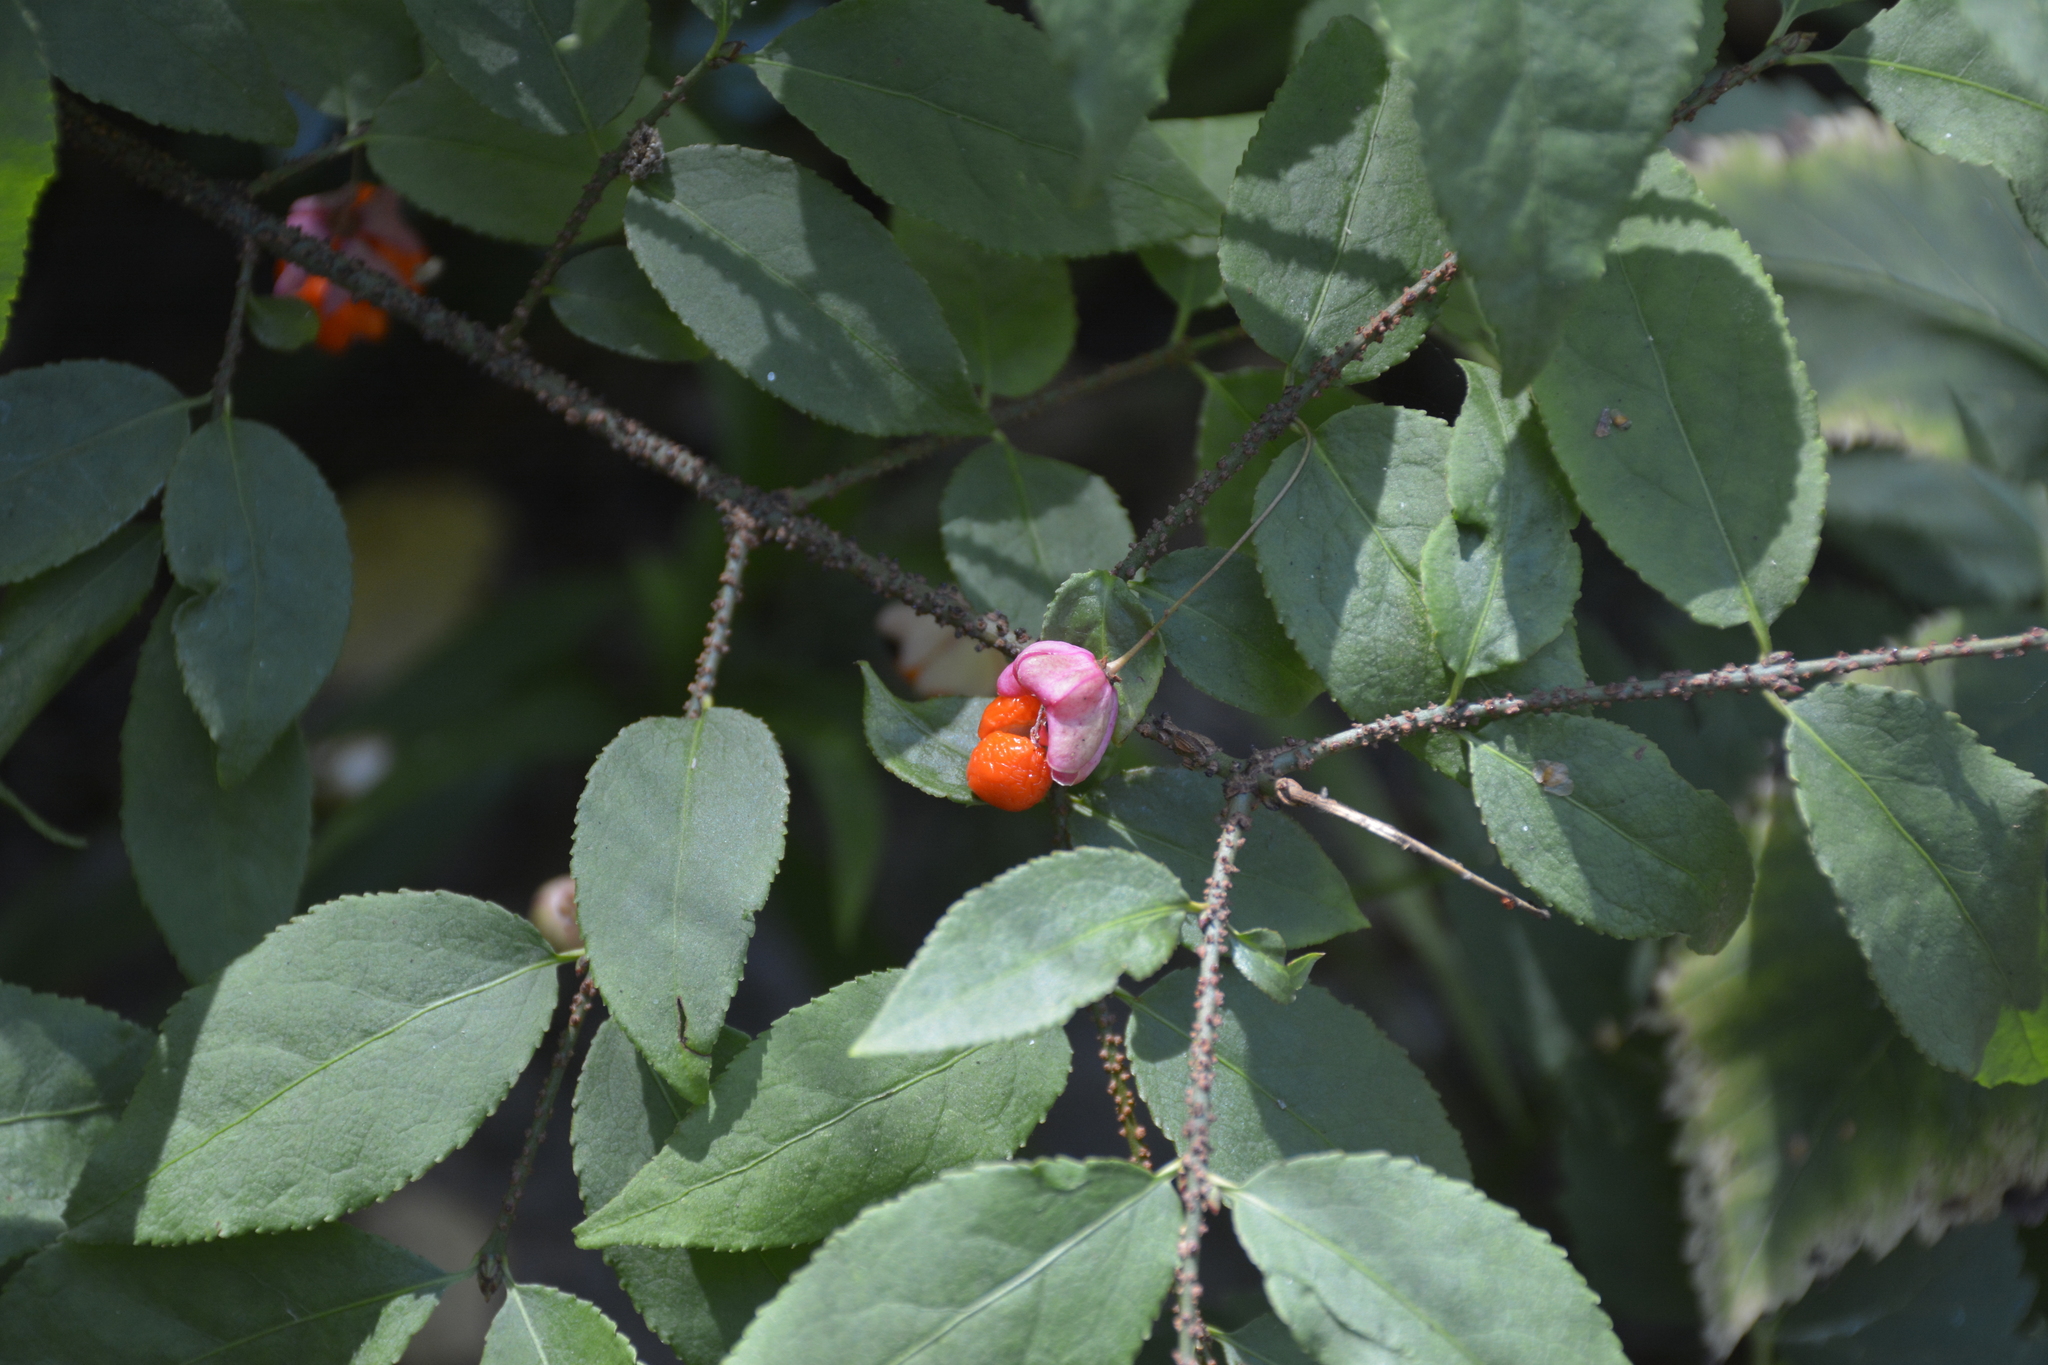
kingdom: Plantae
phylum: Tracheophyta
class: Magnoliopsida
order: Celastrales
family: Celastraceae
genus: Euonymus
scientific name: Euonymus verrucosus
